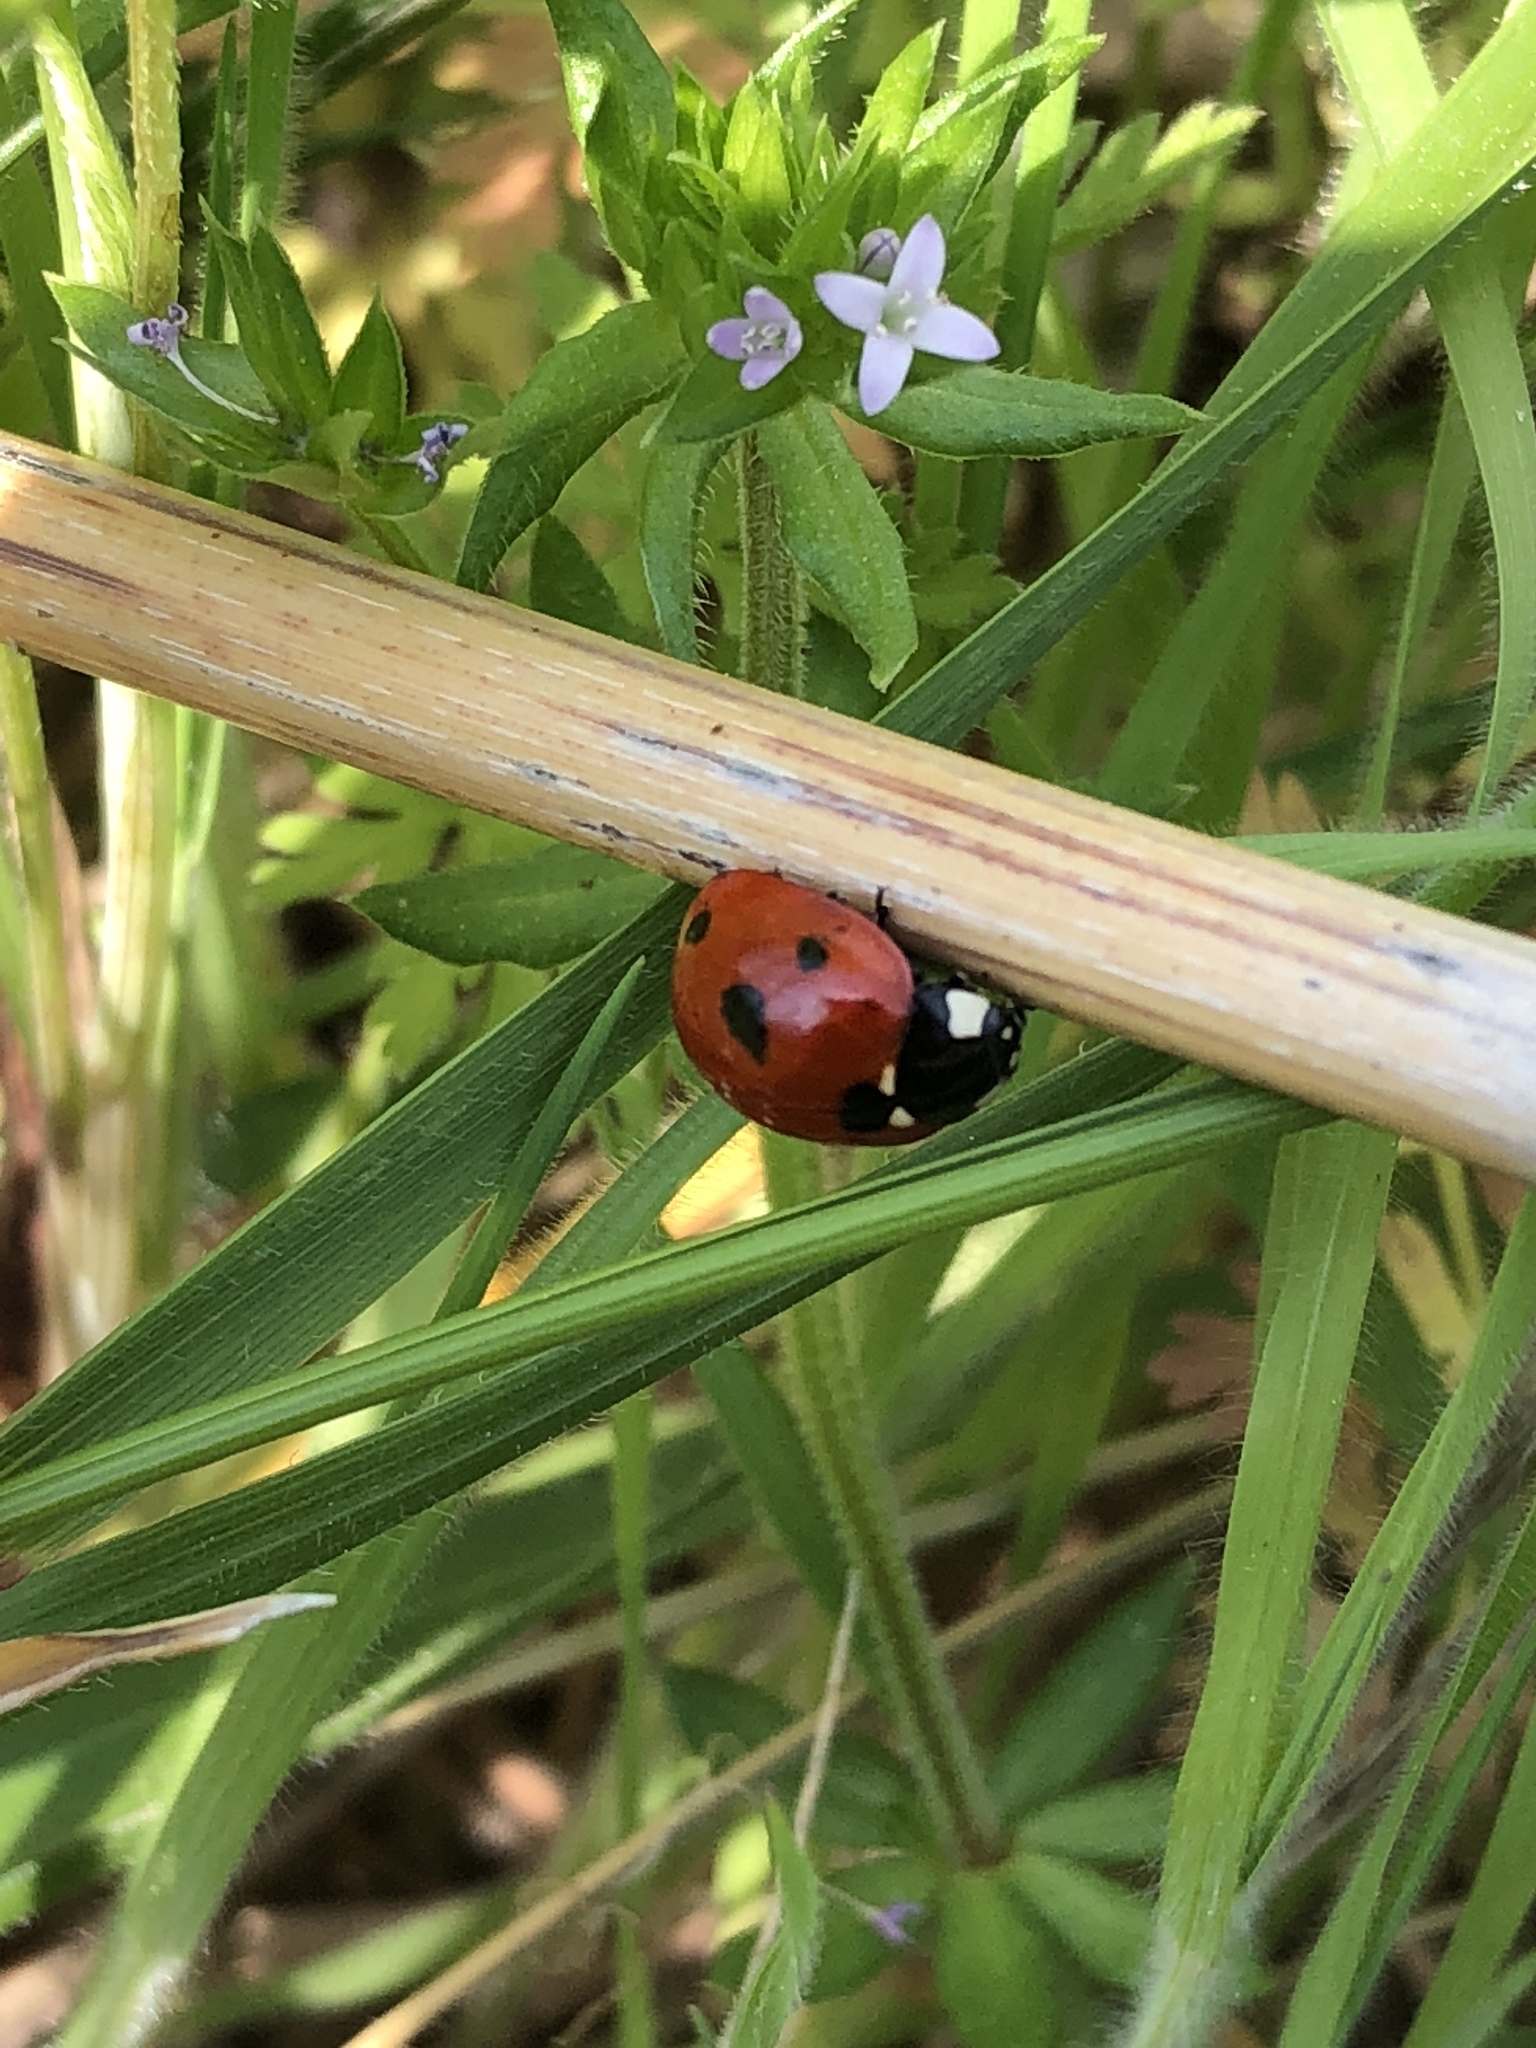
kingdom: Animalia
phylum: Arthropoda
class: Insecta
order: Coleoptera
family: Coccinellidae
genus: Coccinella
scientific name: Coccinella septempunctata
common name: Sevenspotted lady beetle
